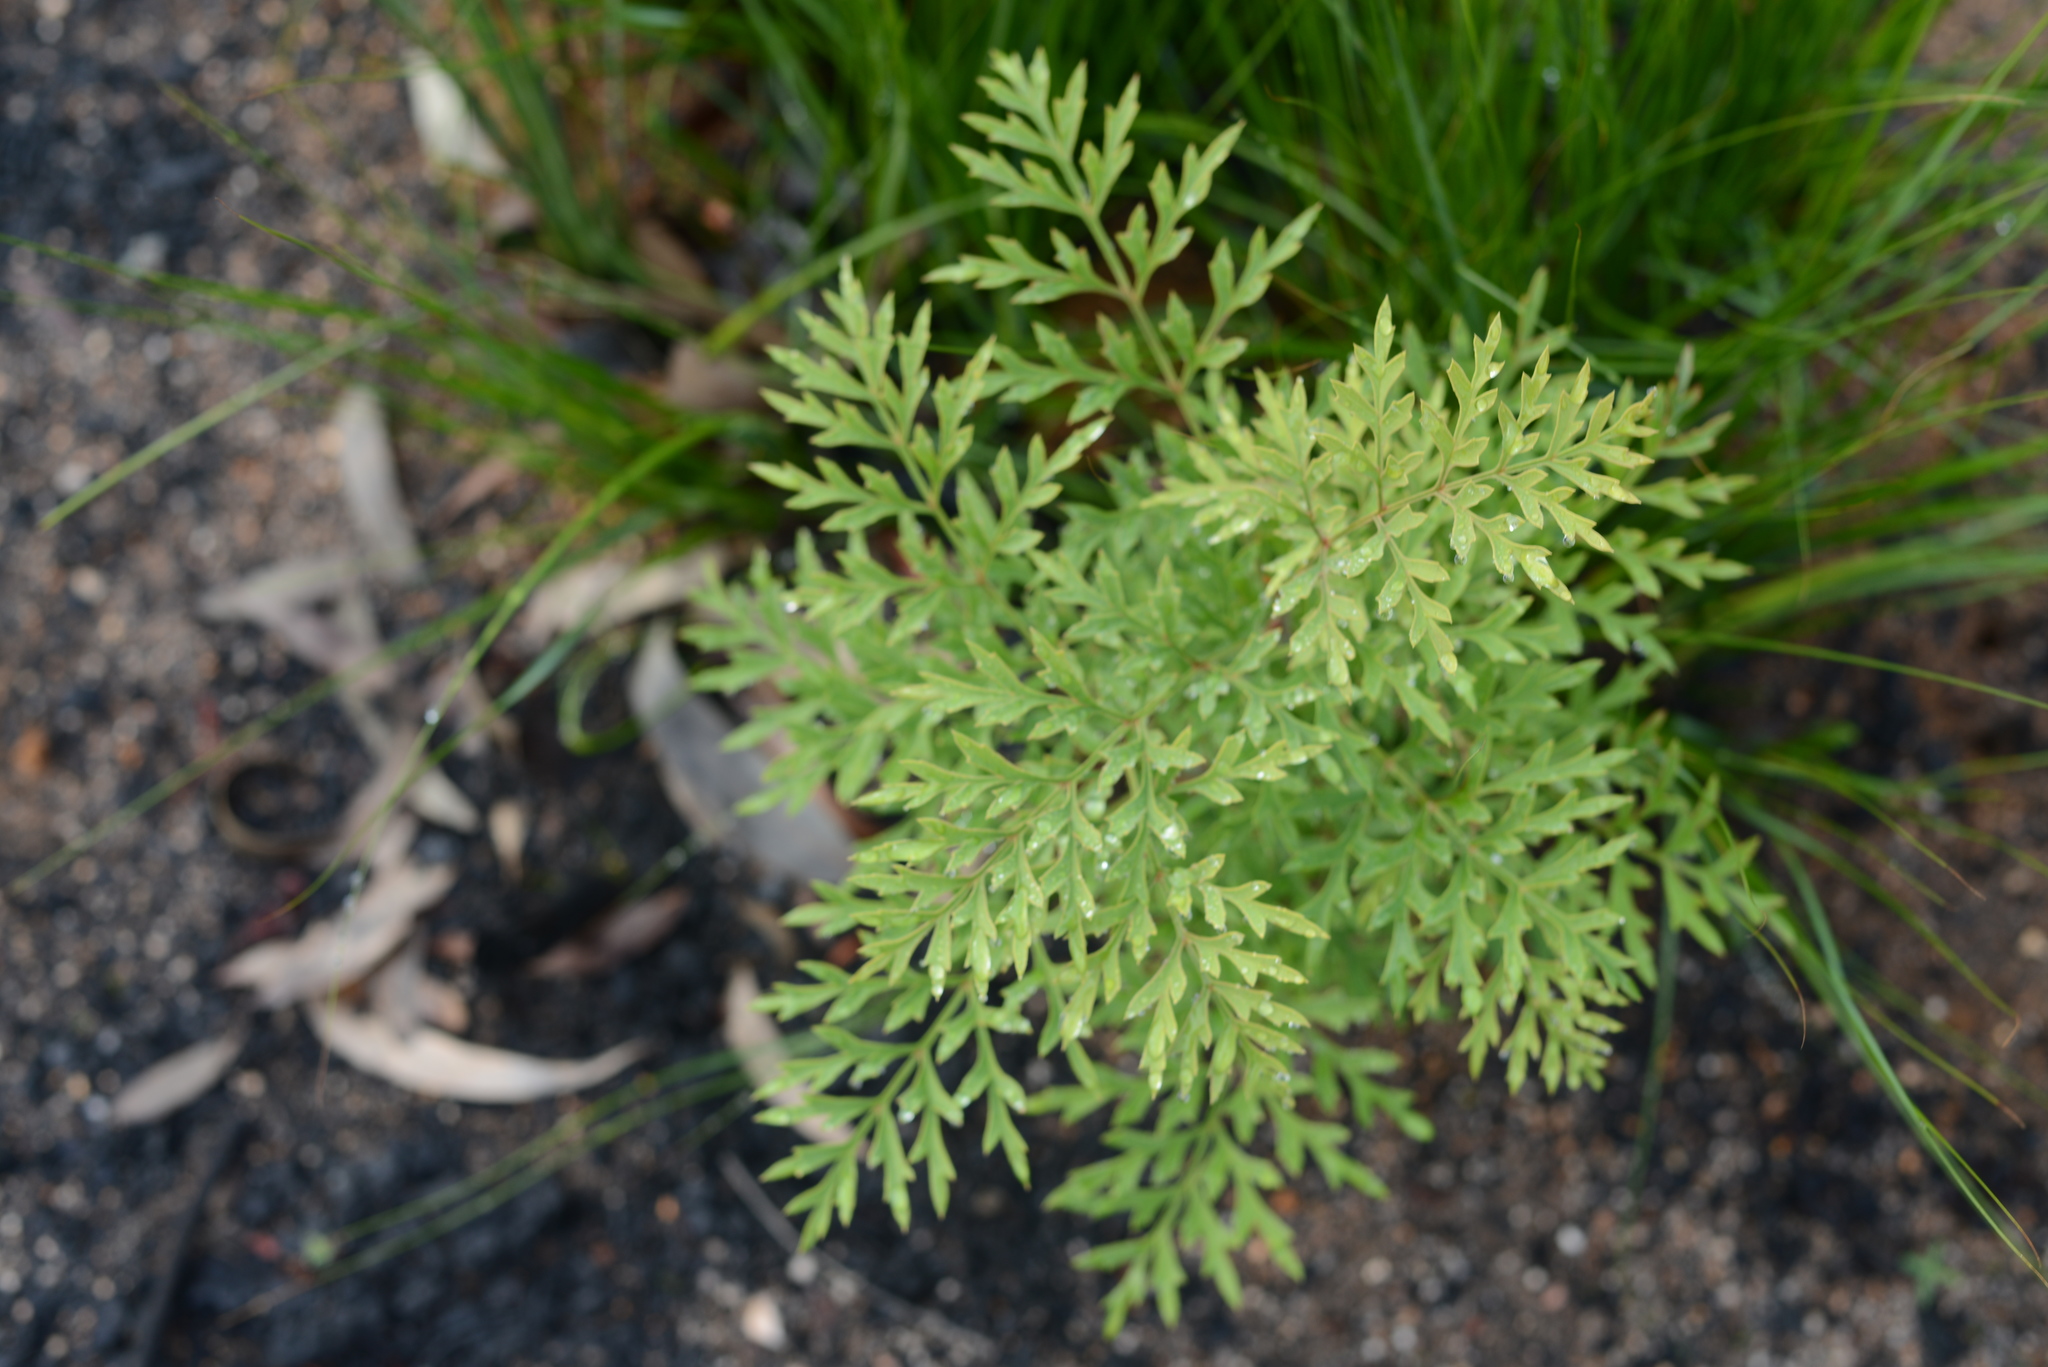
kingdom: Plantae
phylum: Tracheophyta
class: Magnoliopsida
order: Proteales
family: Proteaceae
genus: Lomatia
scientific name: Lomatia silaifolia
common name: Crinklebush
